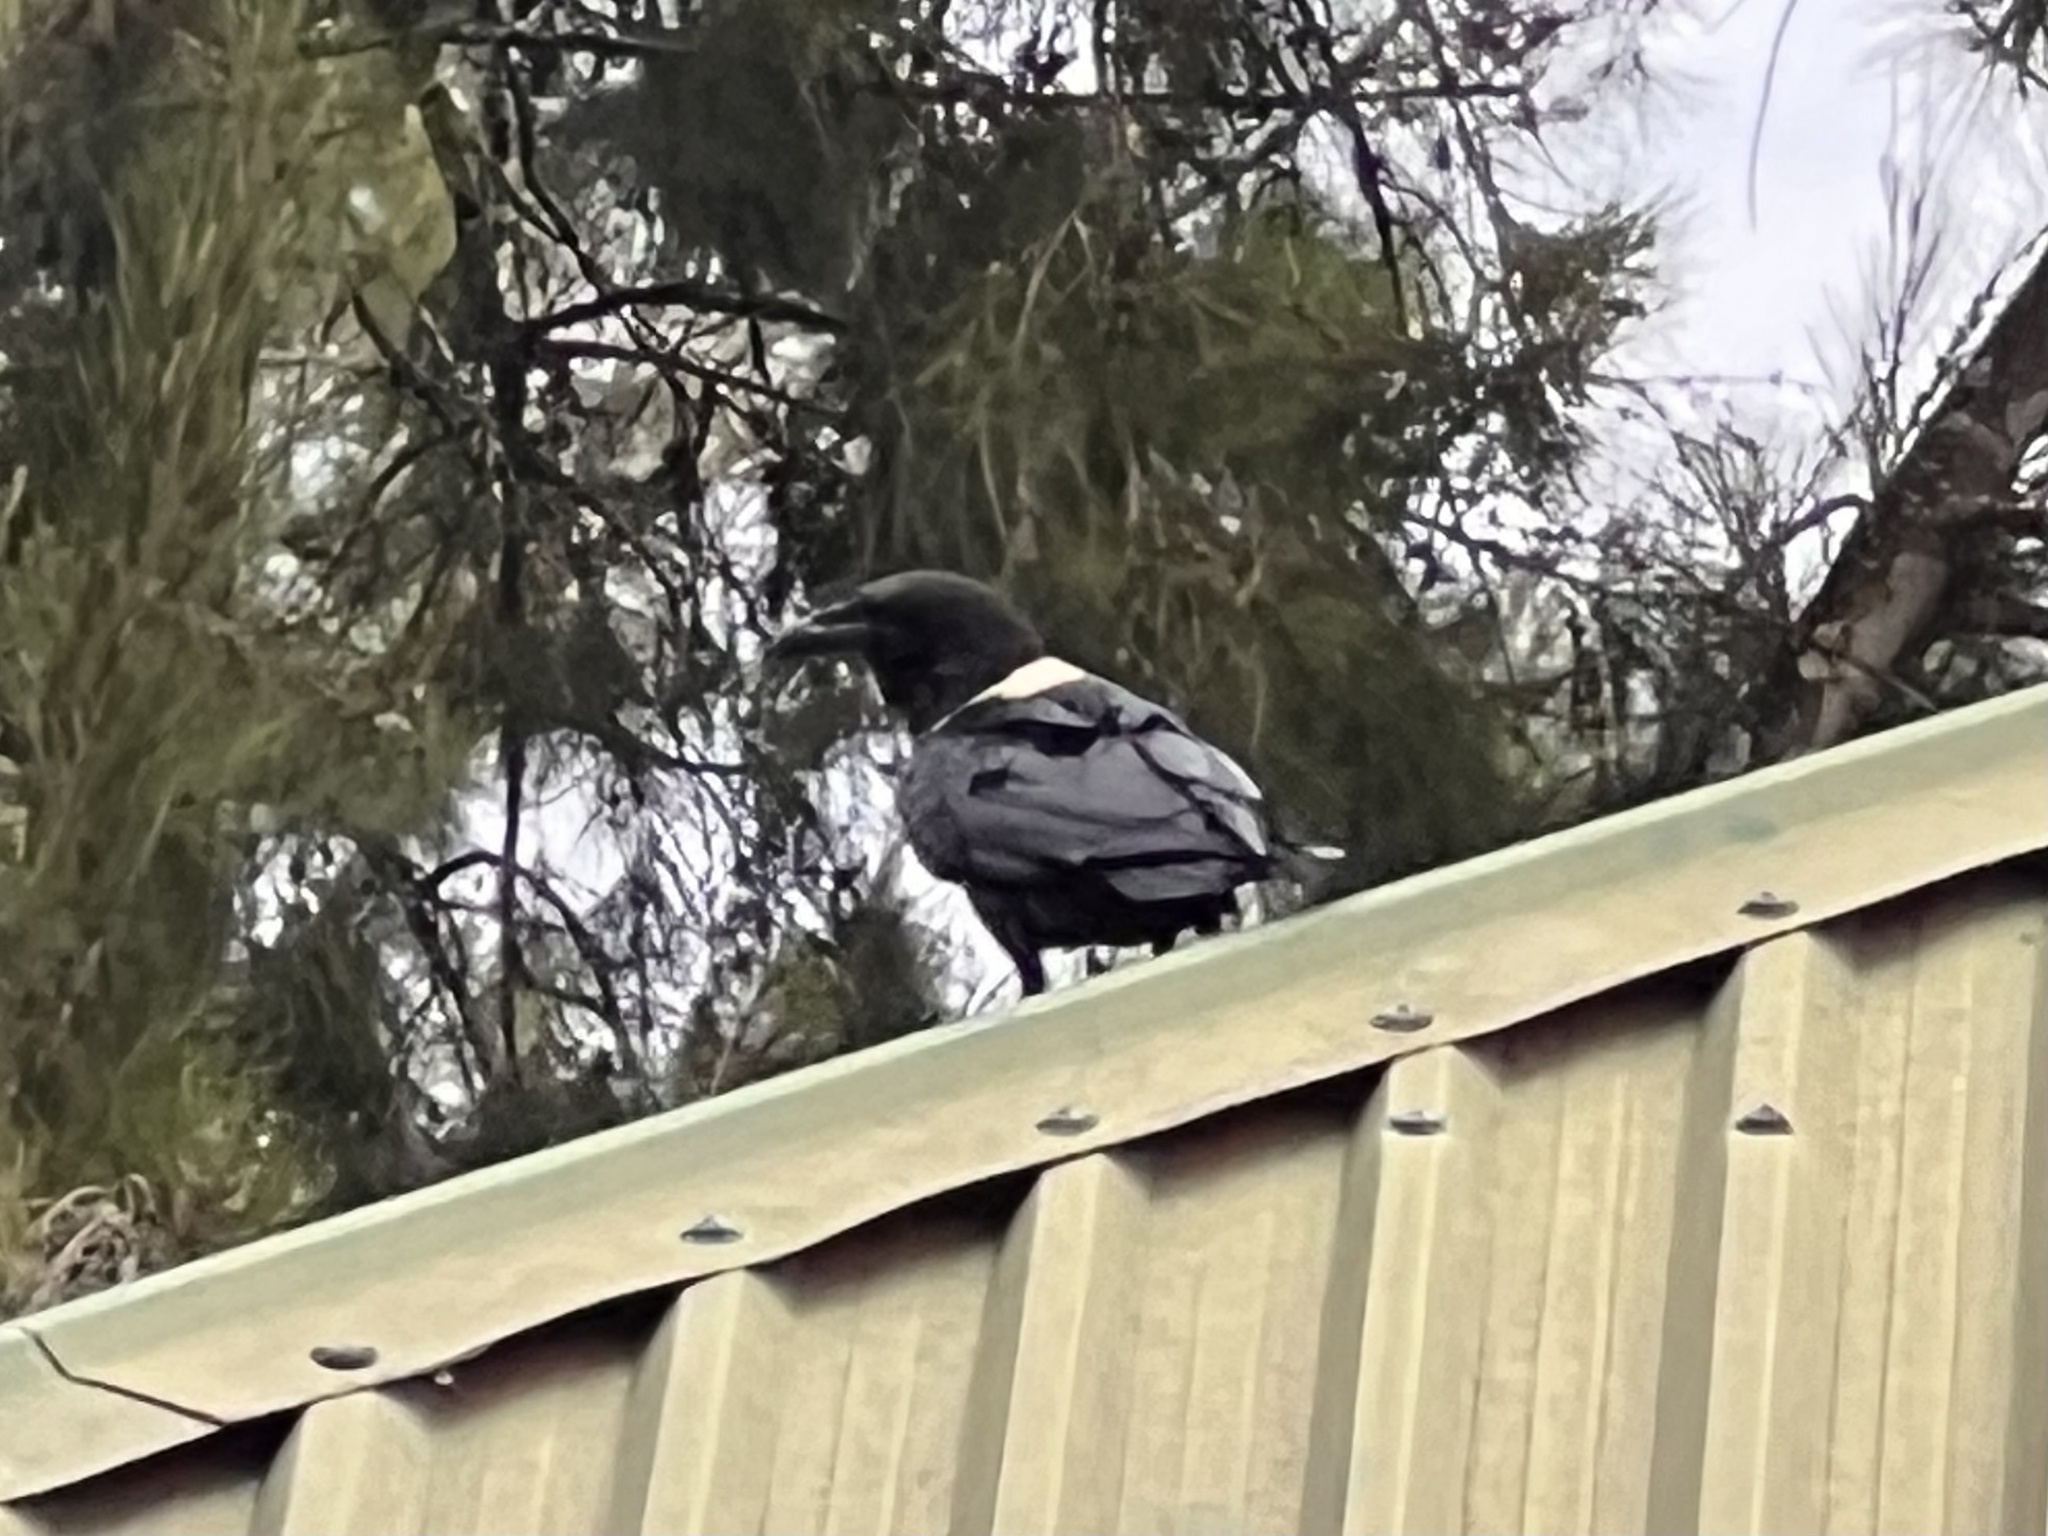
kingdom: Animalia
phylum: Chordata
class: Aves
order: Passeriformes
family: Corvidae
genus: Corvus
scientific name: Corvus albus
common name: Pied crow
